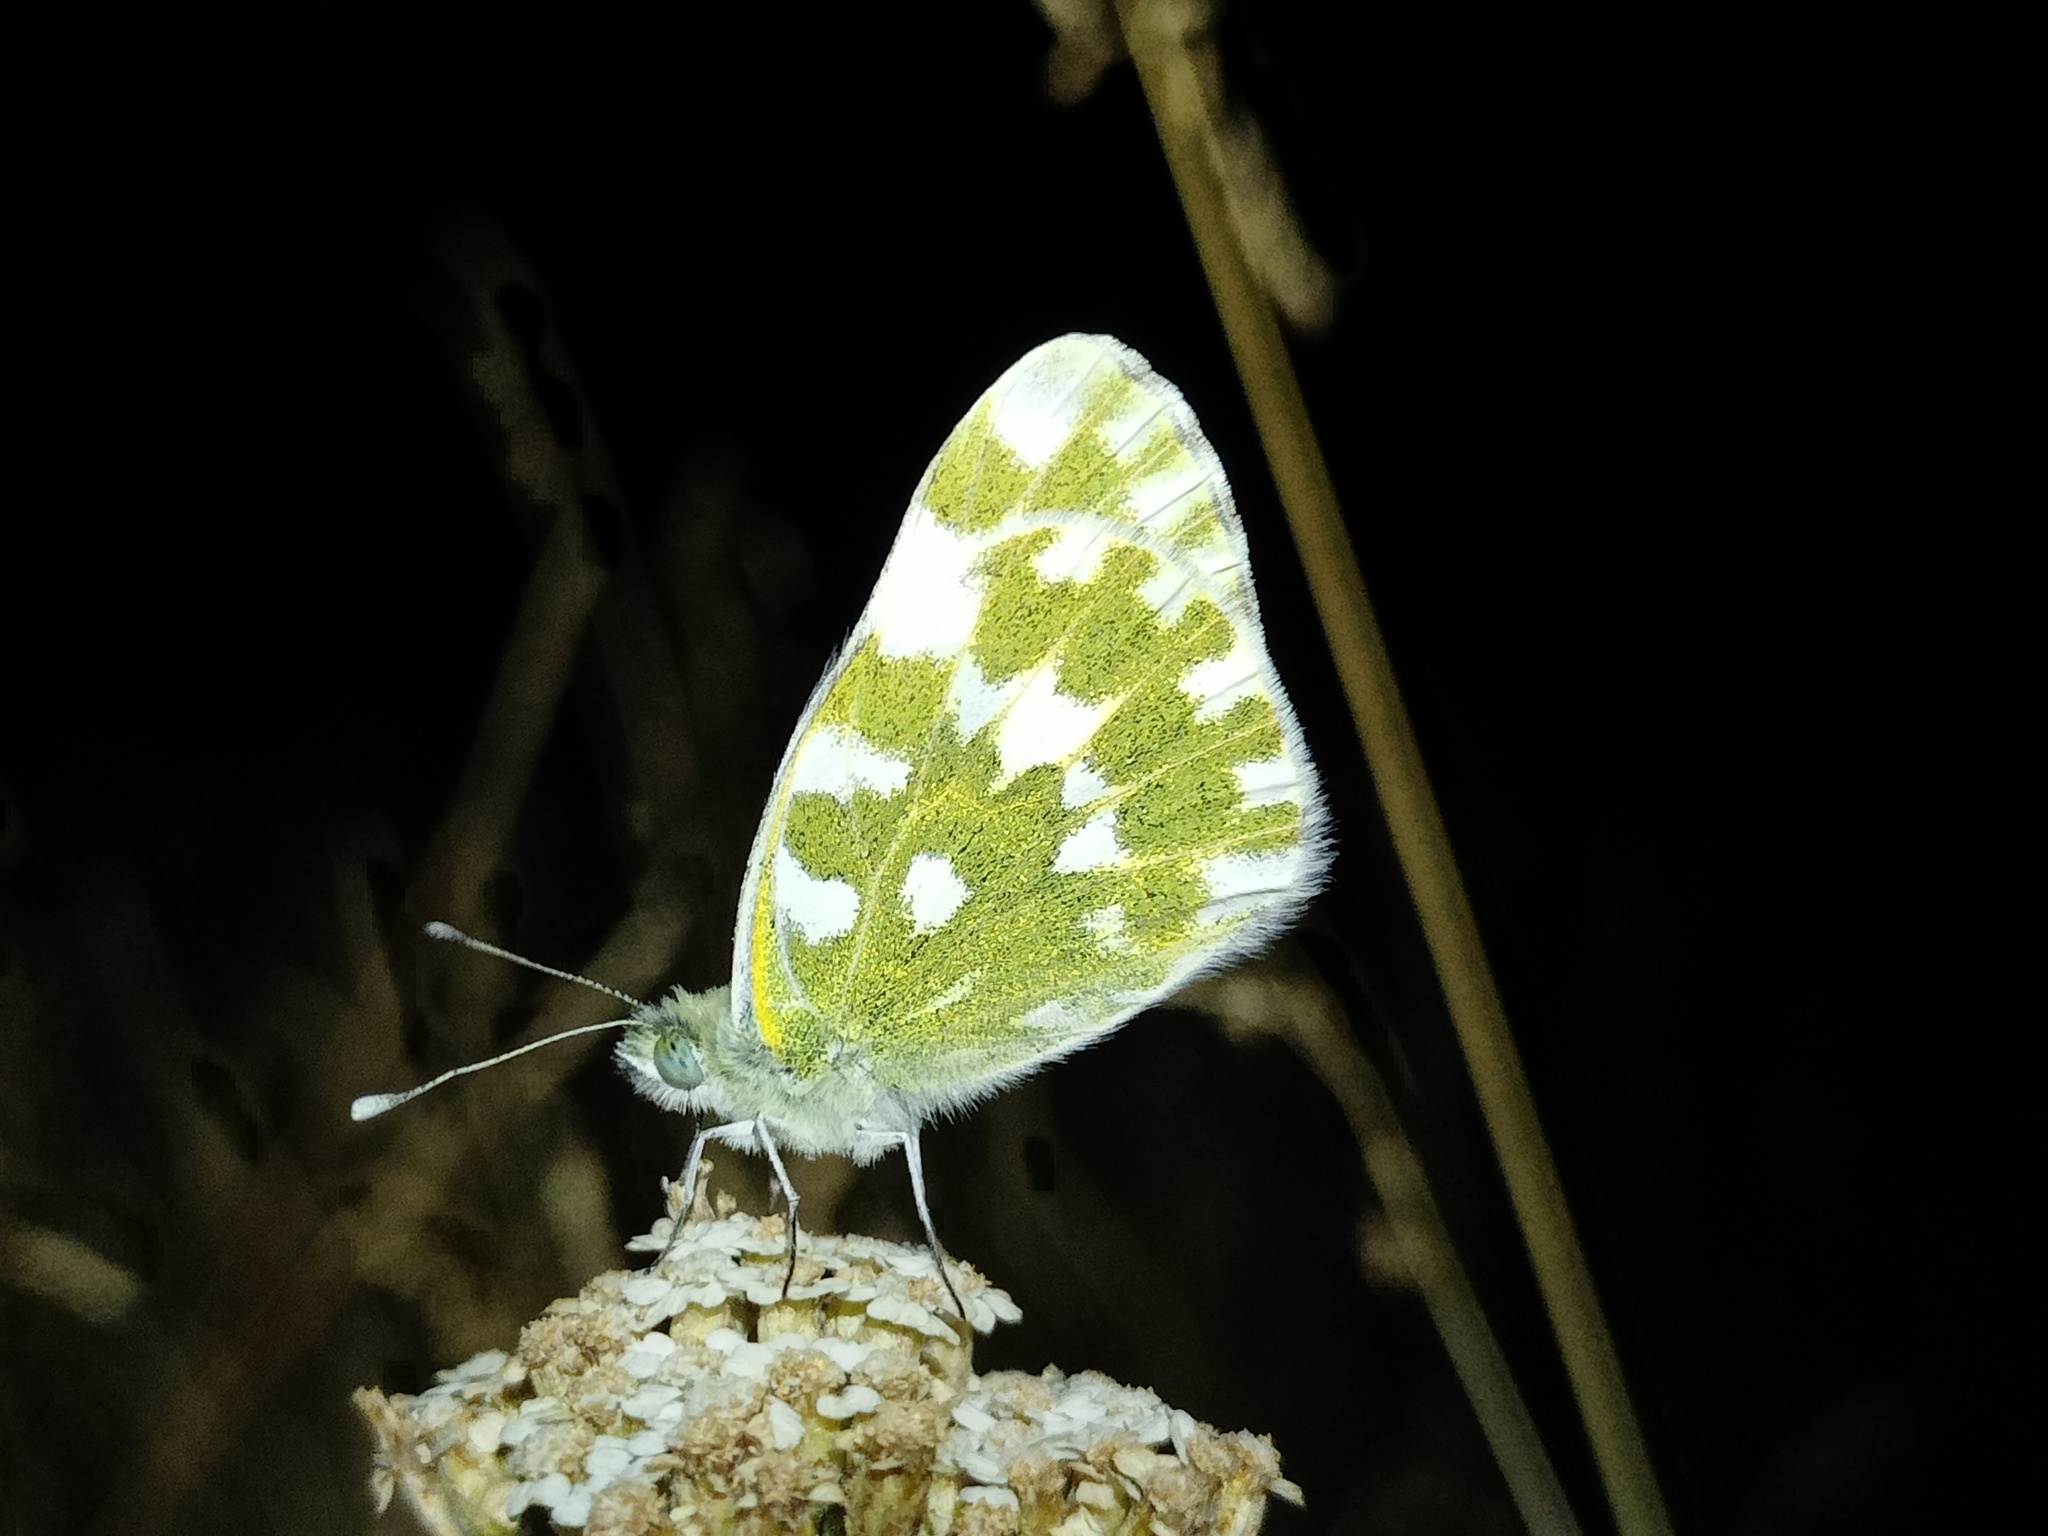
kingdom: Animalia
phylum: Arthropoda
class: Insecta
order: Lepidoptera
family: Pieridae
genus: Pontia
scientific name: Pontia edusa
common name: Eastern bath white
